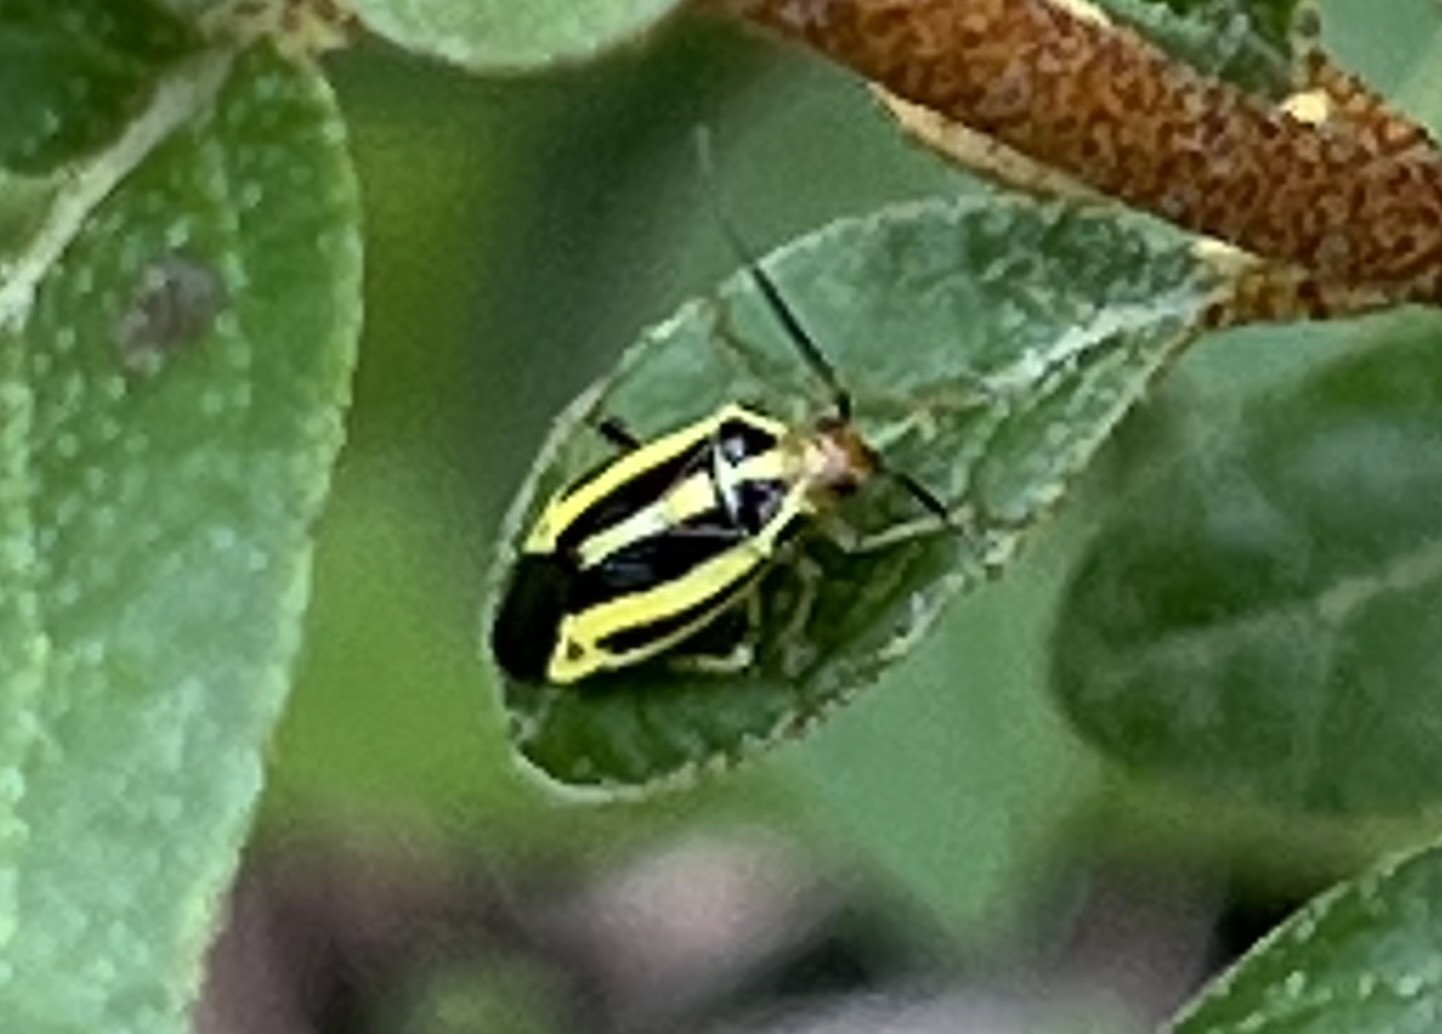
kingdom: Animalia
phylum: Arthropoda
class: Insecta
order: Hemiptera
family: Miridae
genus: Poecilocapsus
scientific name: Poecilocapsus lineatus
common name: Four-lined plant bug
